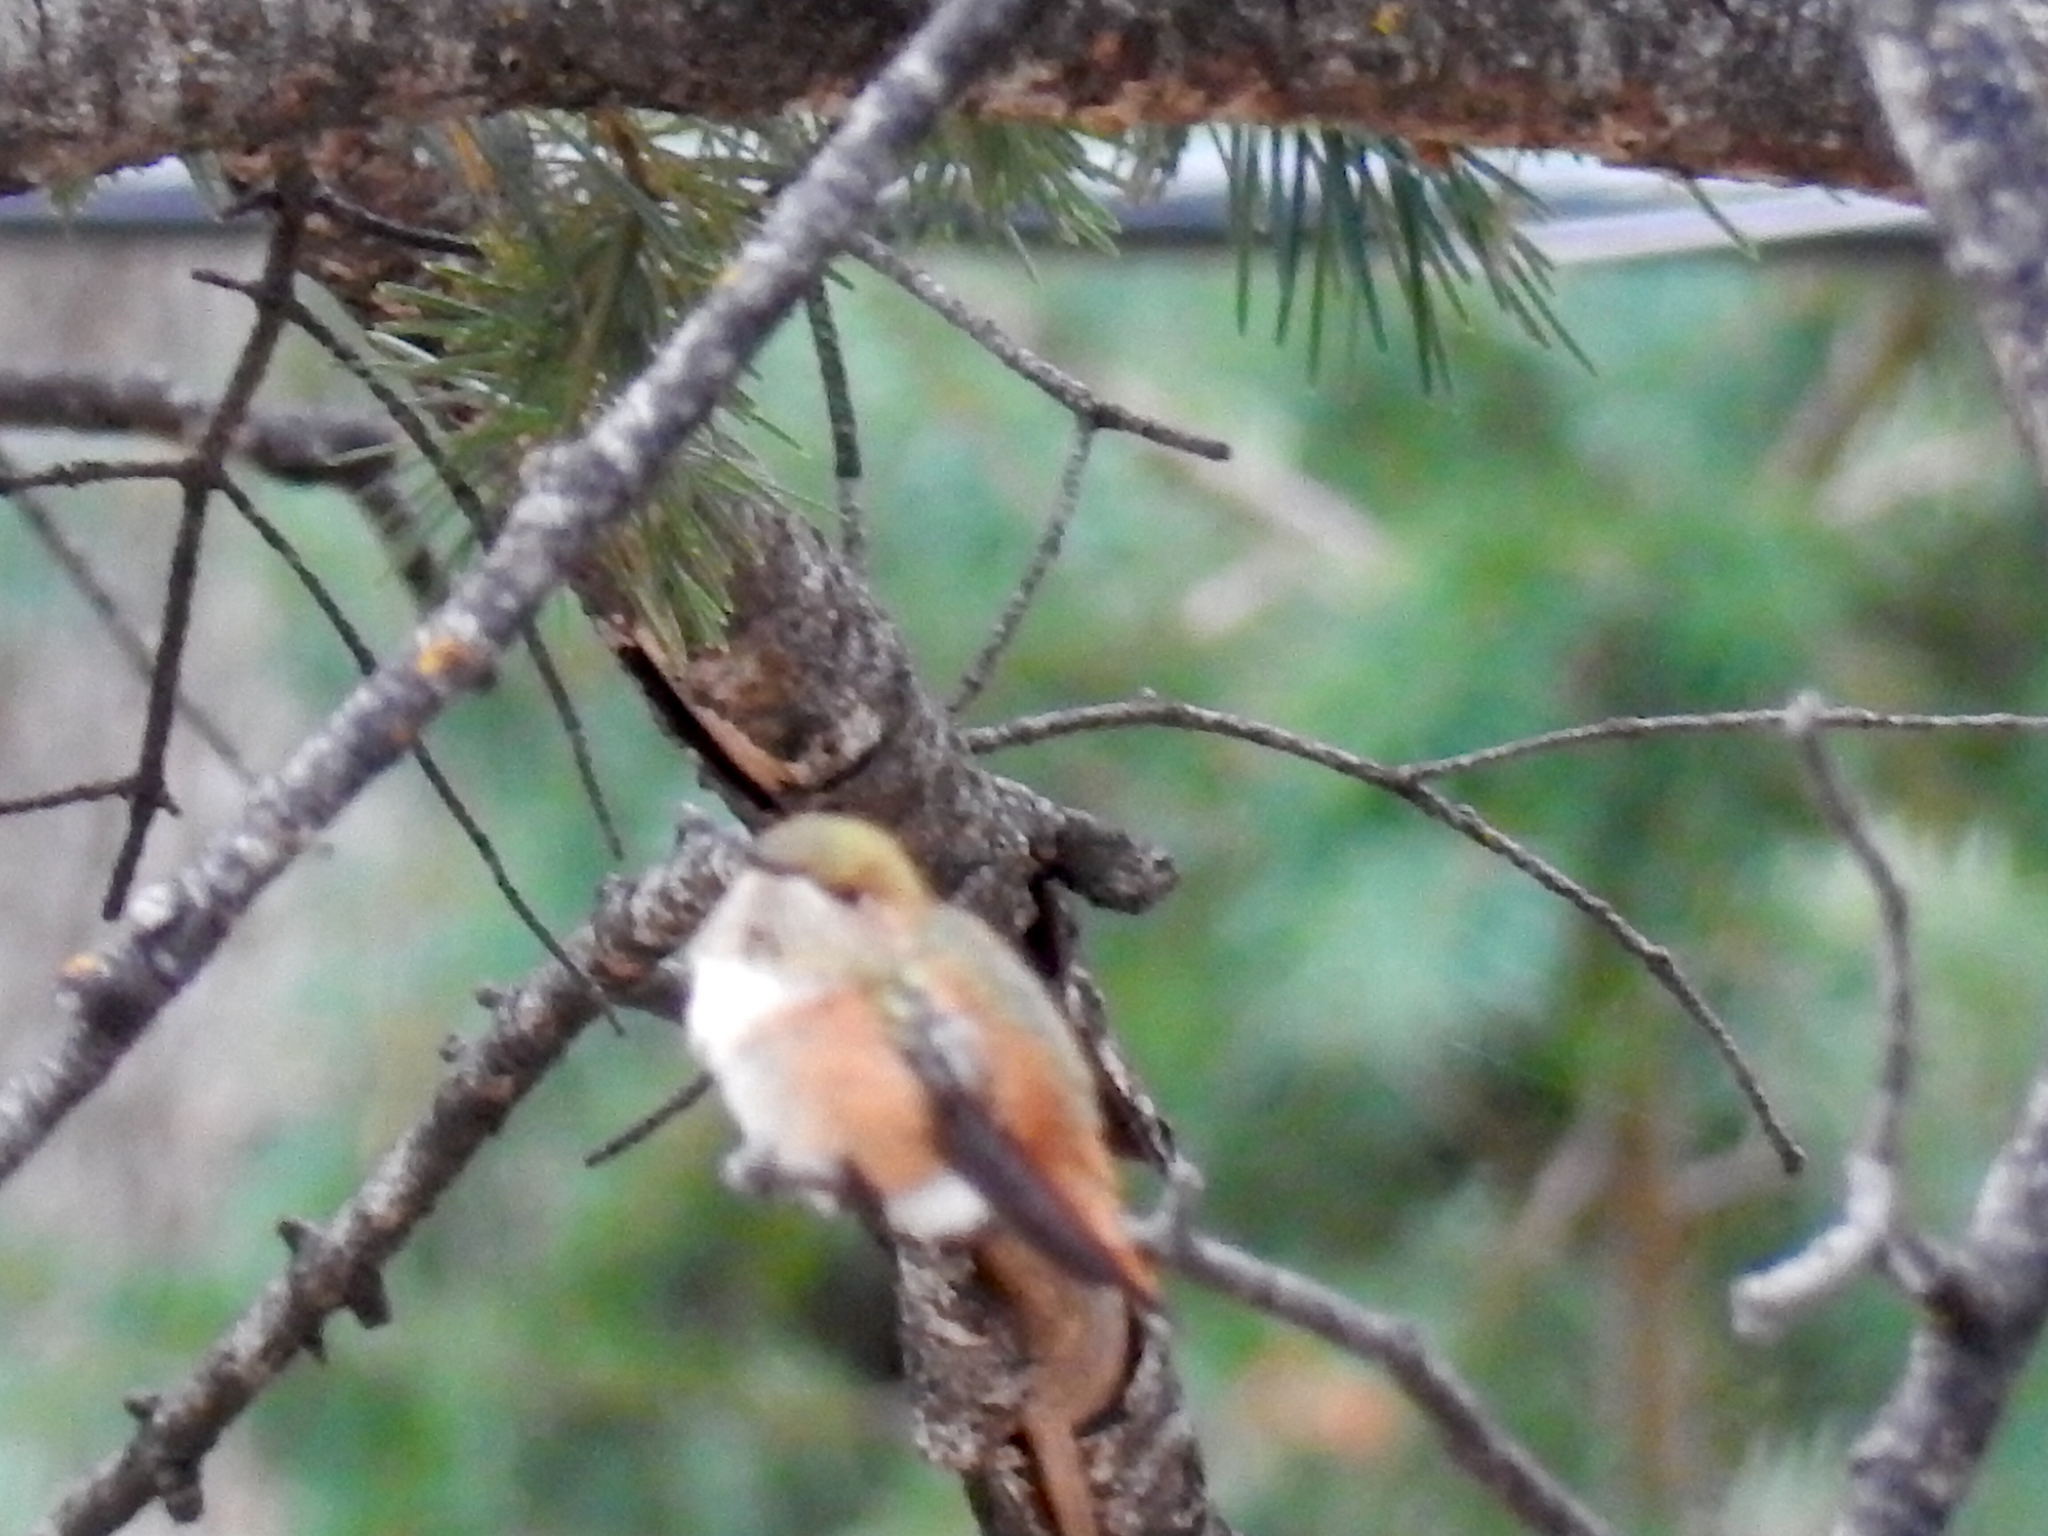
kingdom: Animalia
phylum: Chordata
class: Aves
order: Apodiformes
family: Trochilidae
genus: Selasphorus
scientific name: Selasphorus rufus
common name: Rufous hummingbird
